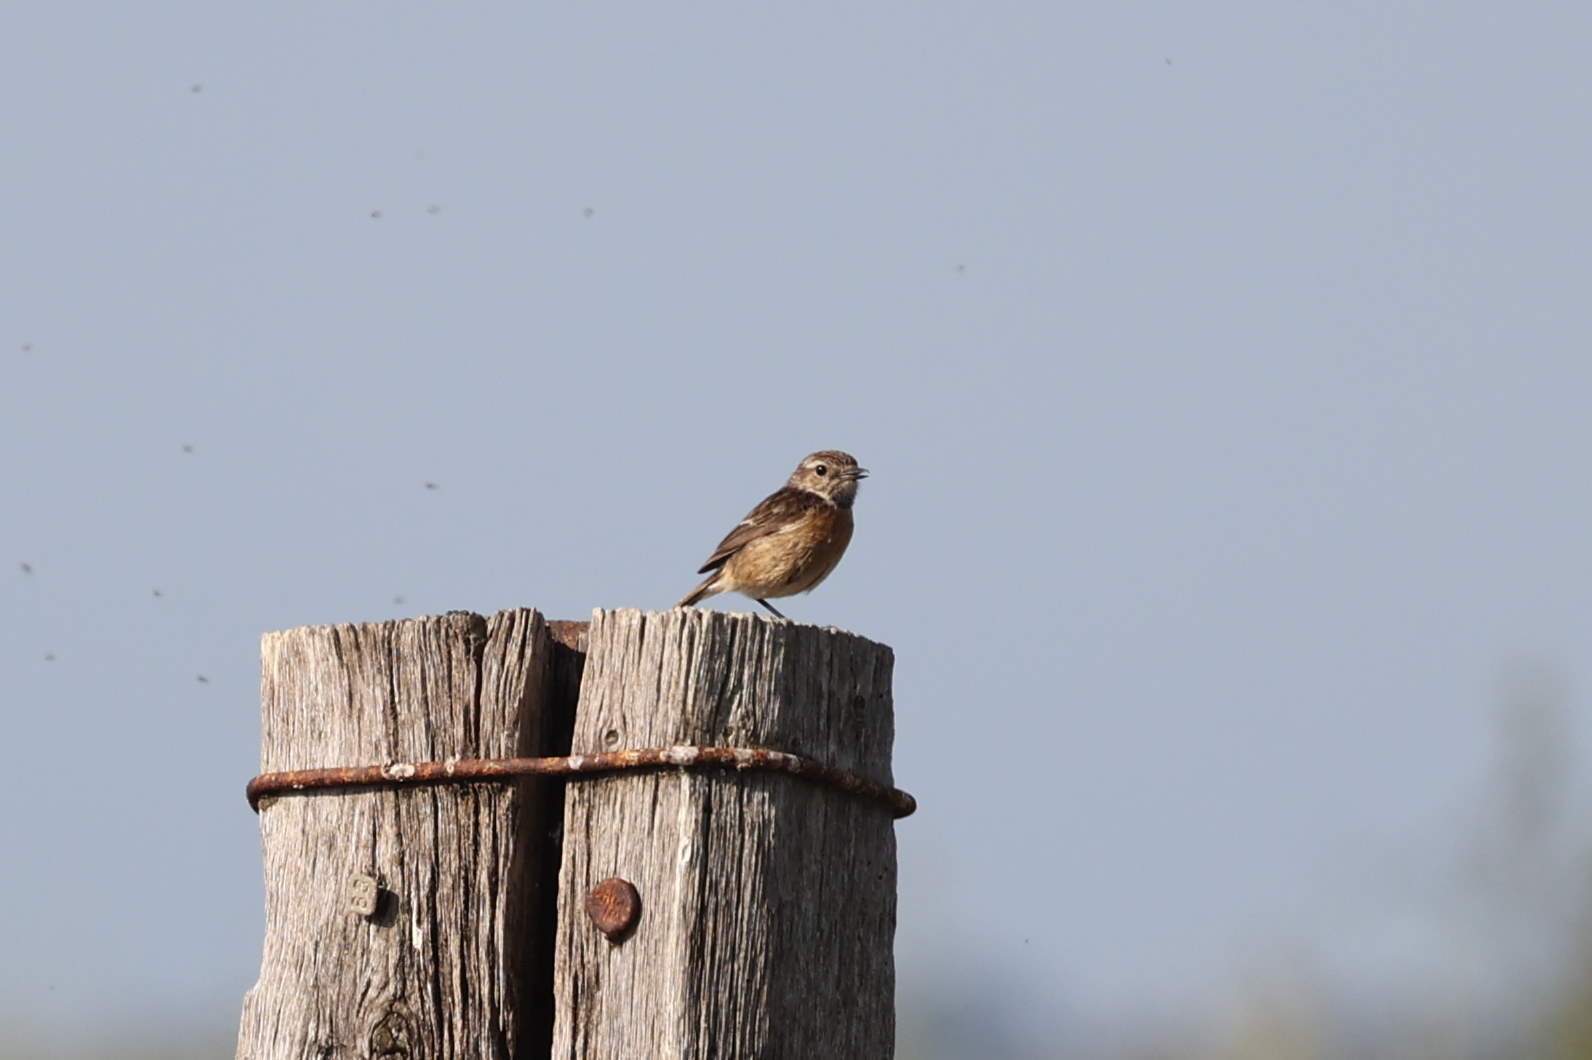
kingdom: Animalia
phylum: Chordata
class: Aves
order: Passeriformes
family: Muscicapidae
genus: Saxicola
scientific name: Saxicola rubicola
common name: European stonechat
